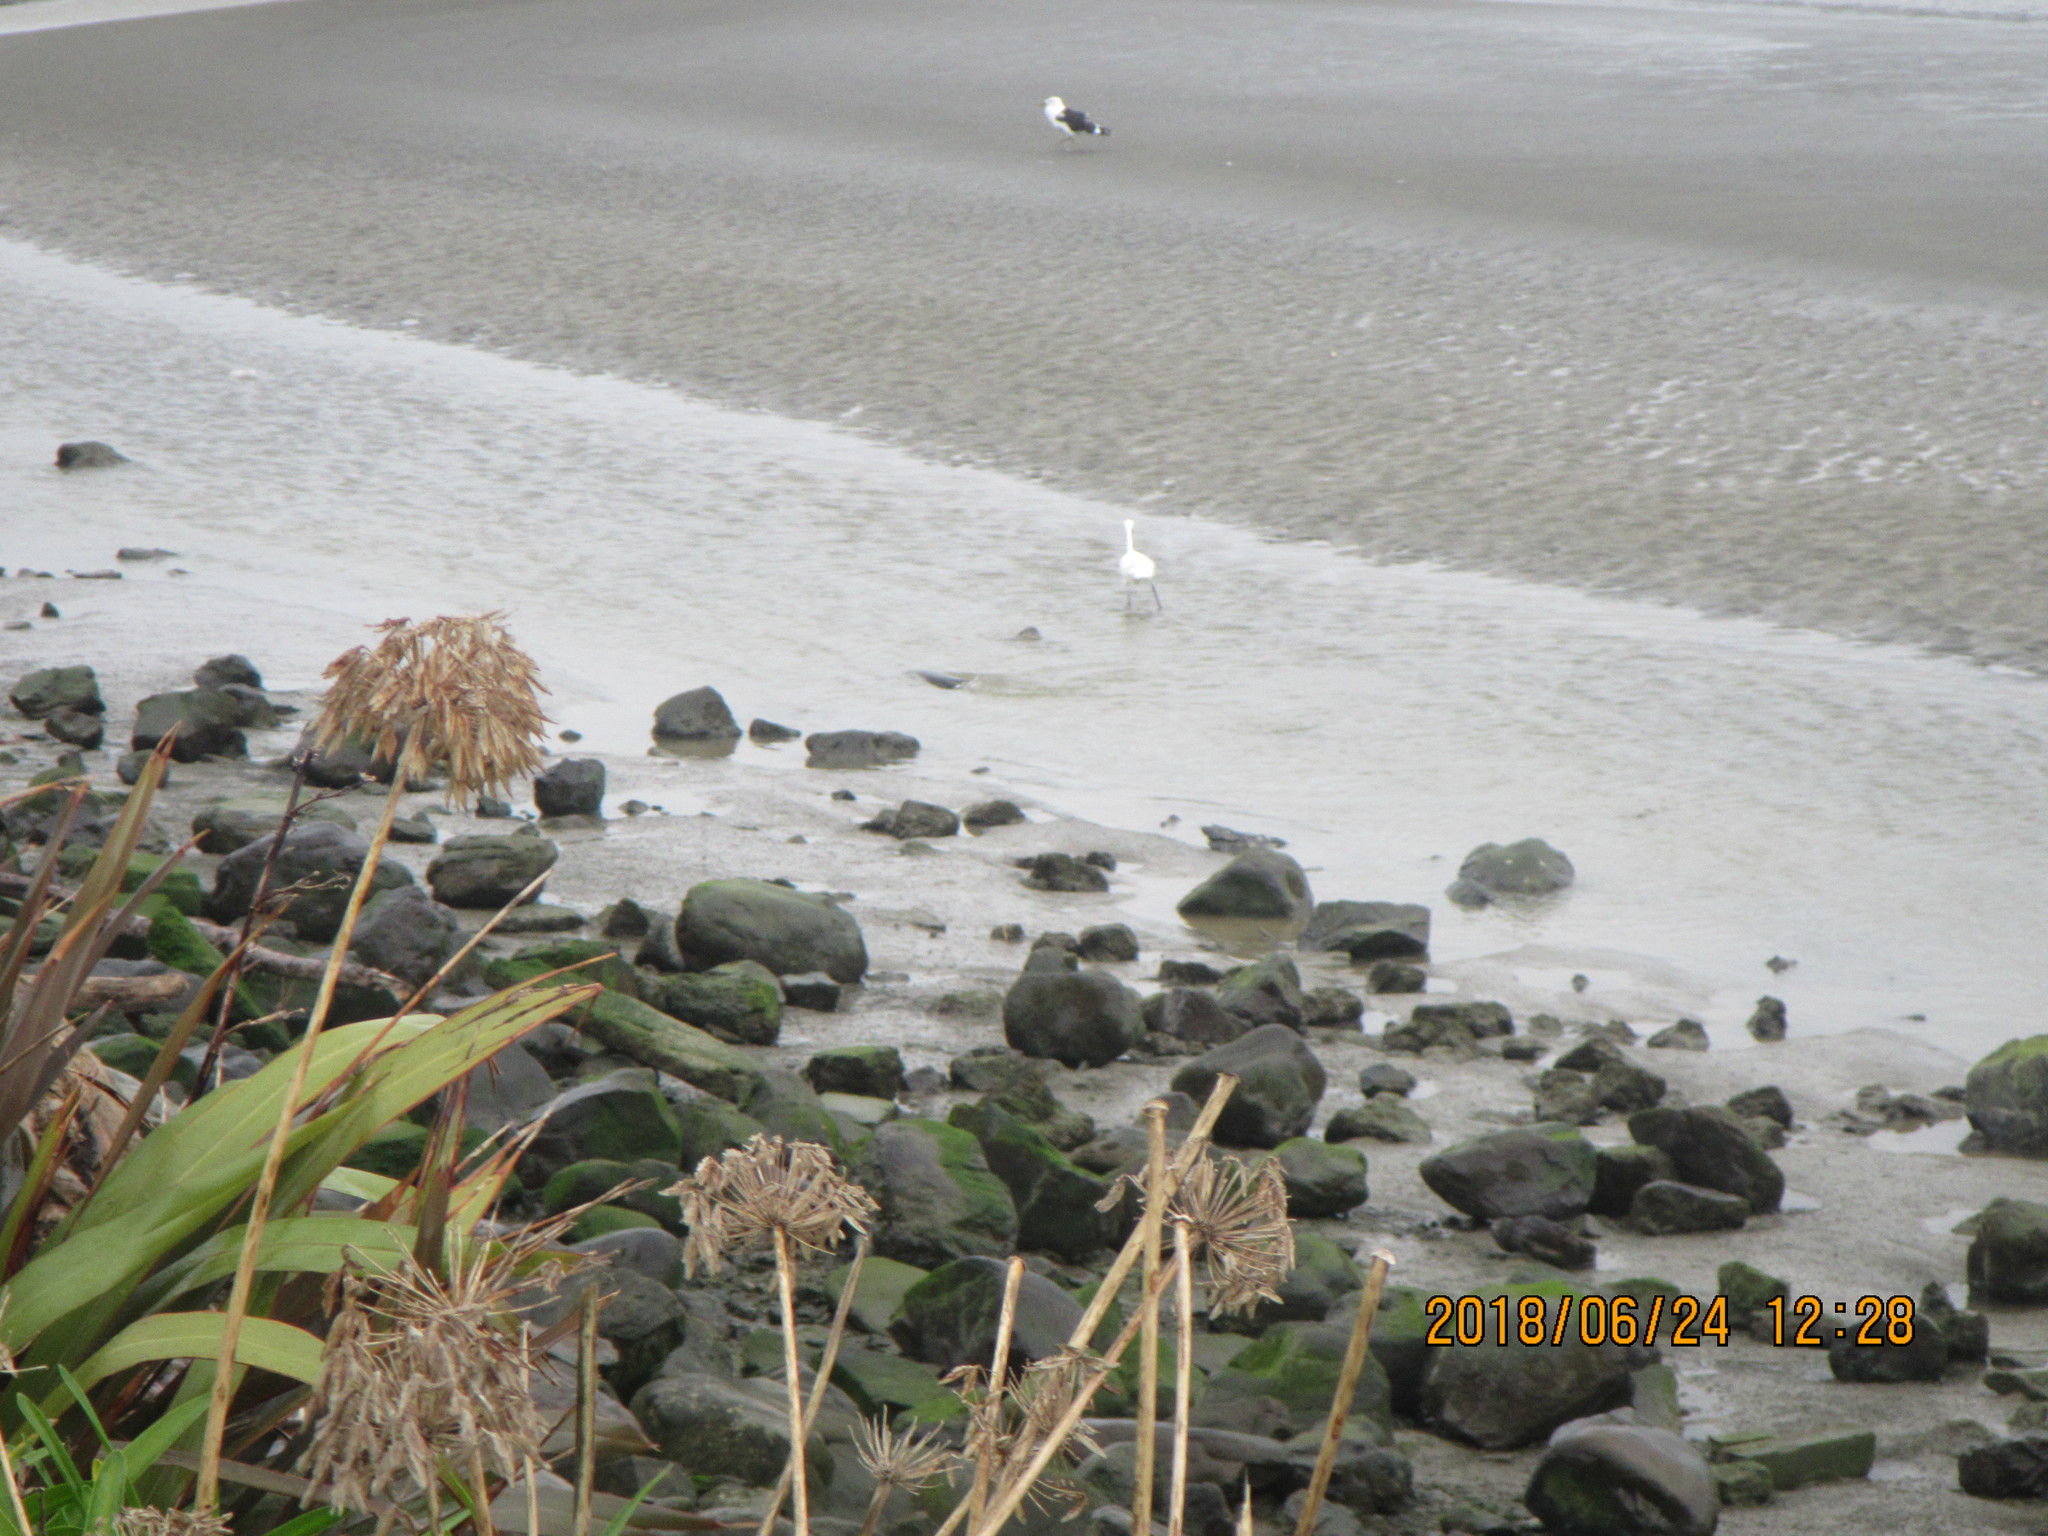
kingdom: Animalia
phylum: Chordata
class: Aves
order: Pelecaniformes
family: Ardeidae
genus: Egretta
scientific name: Egretta garzetta
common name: Little egret
